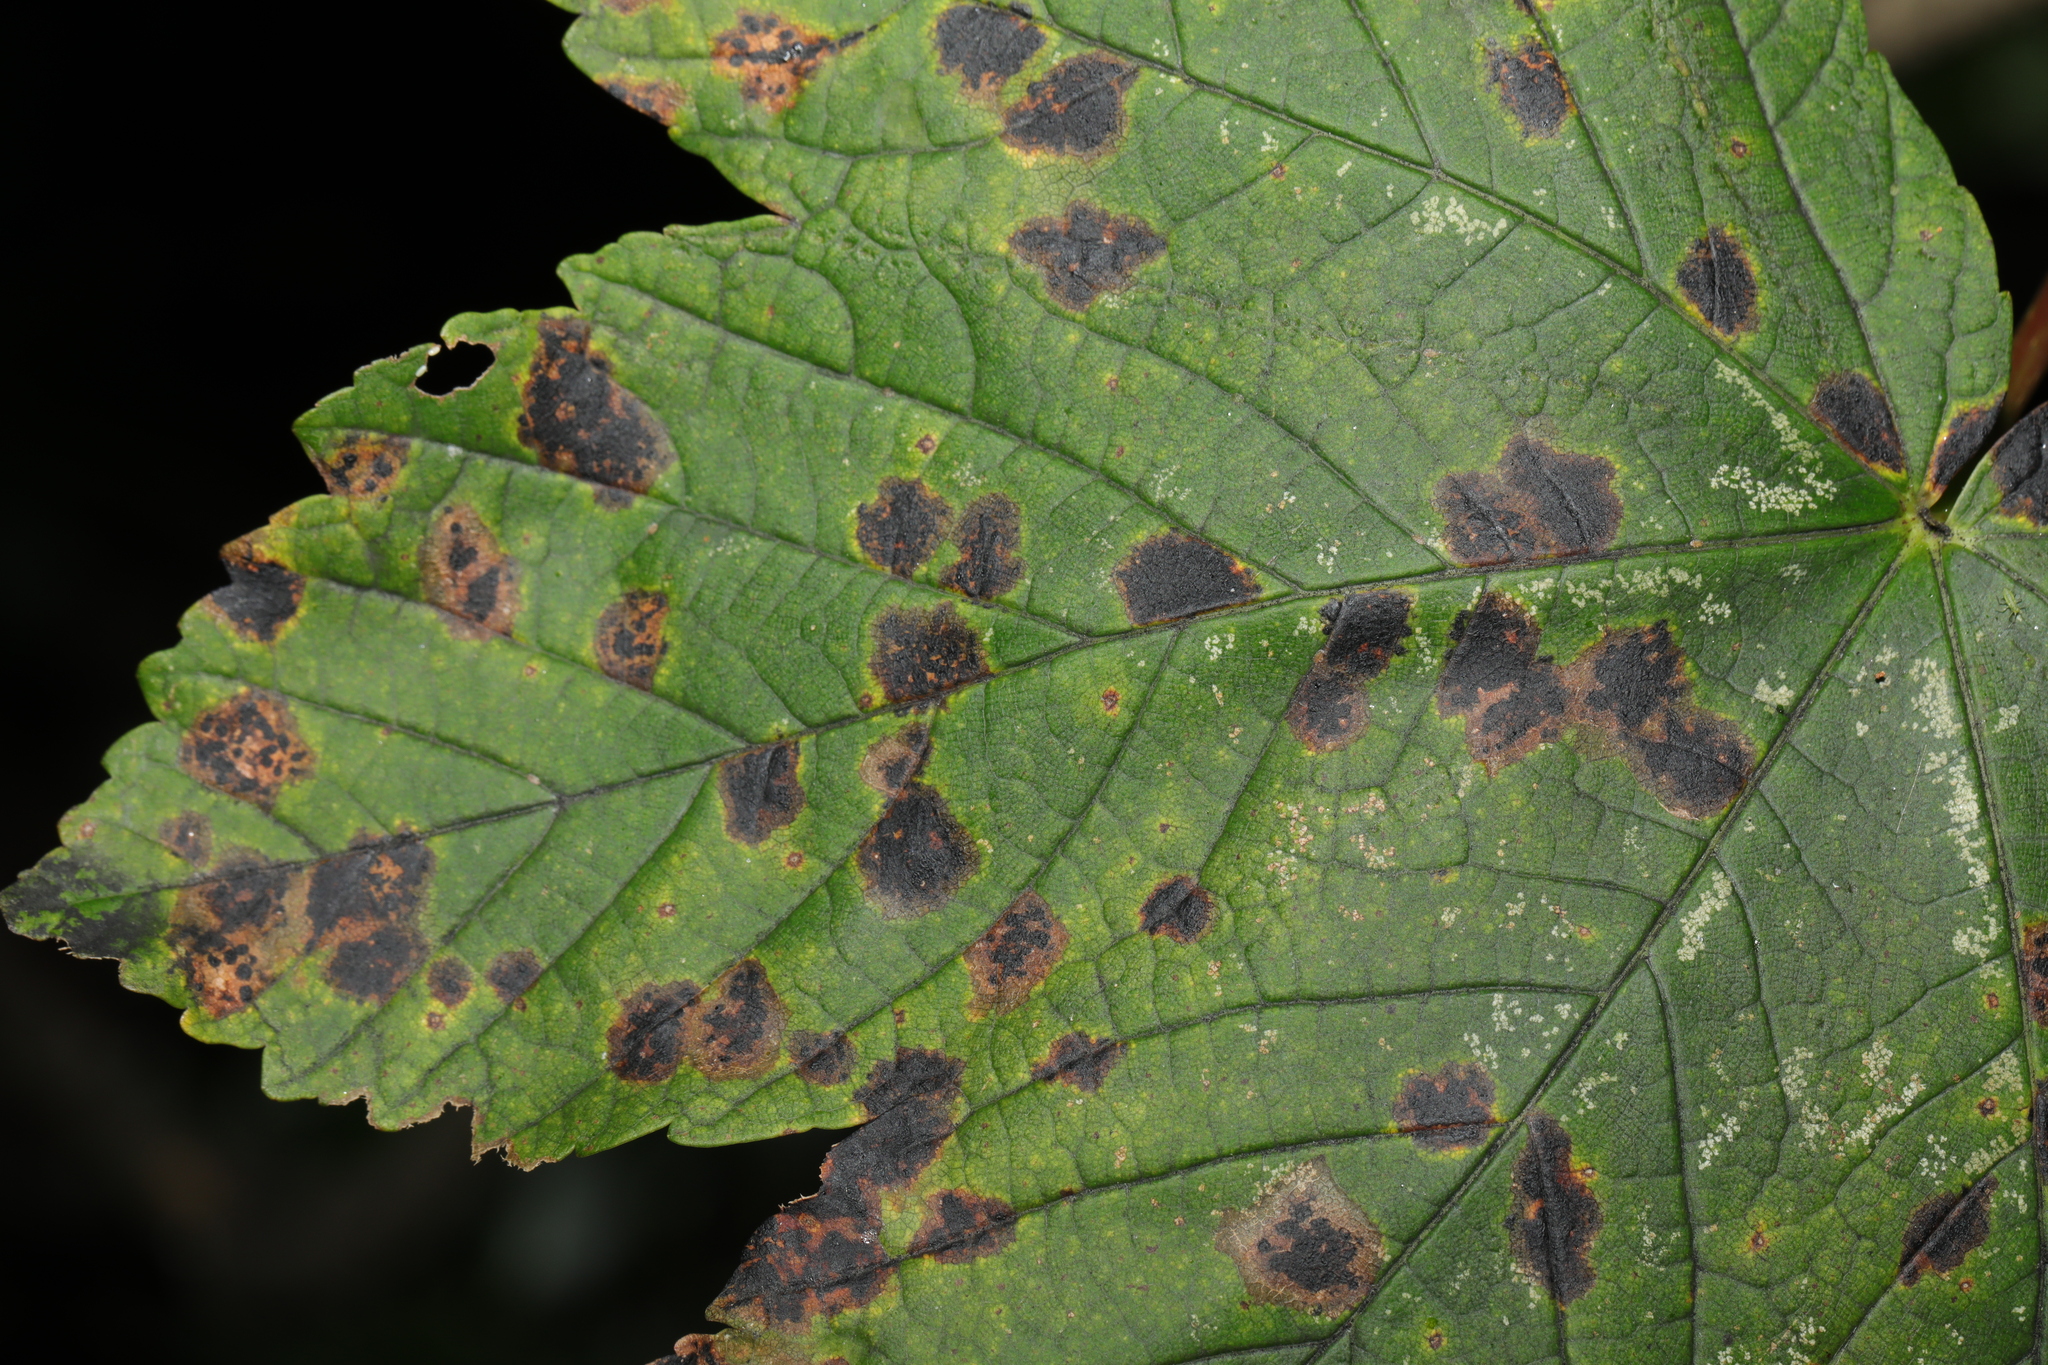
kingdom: Fungi
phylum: Ascomycota
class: Leotiomycetes
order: Rhytismatales
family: Rhytismataceae
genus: Rhytisma
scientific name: Rhytisma acerinum
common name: European tar spot
